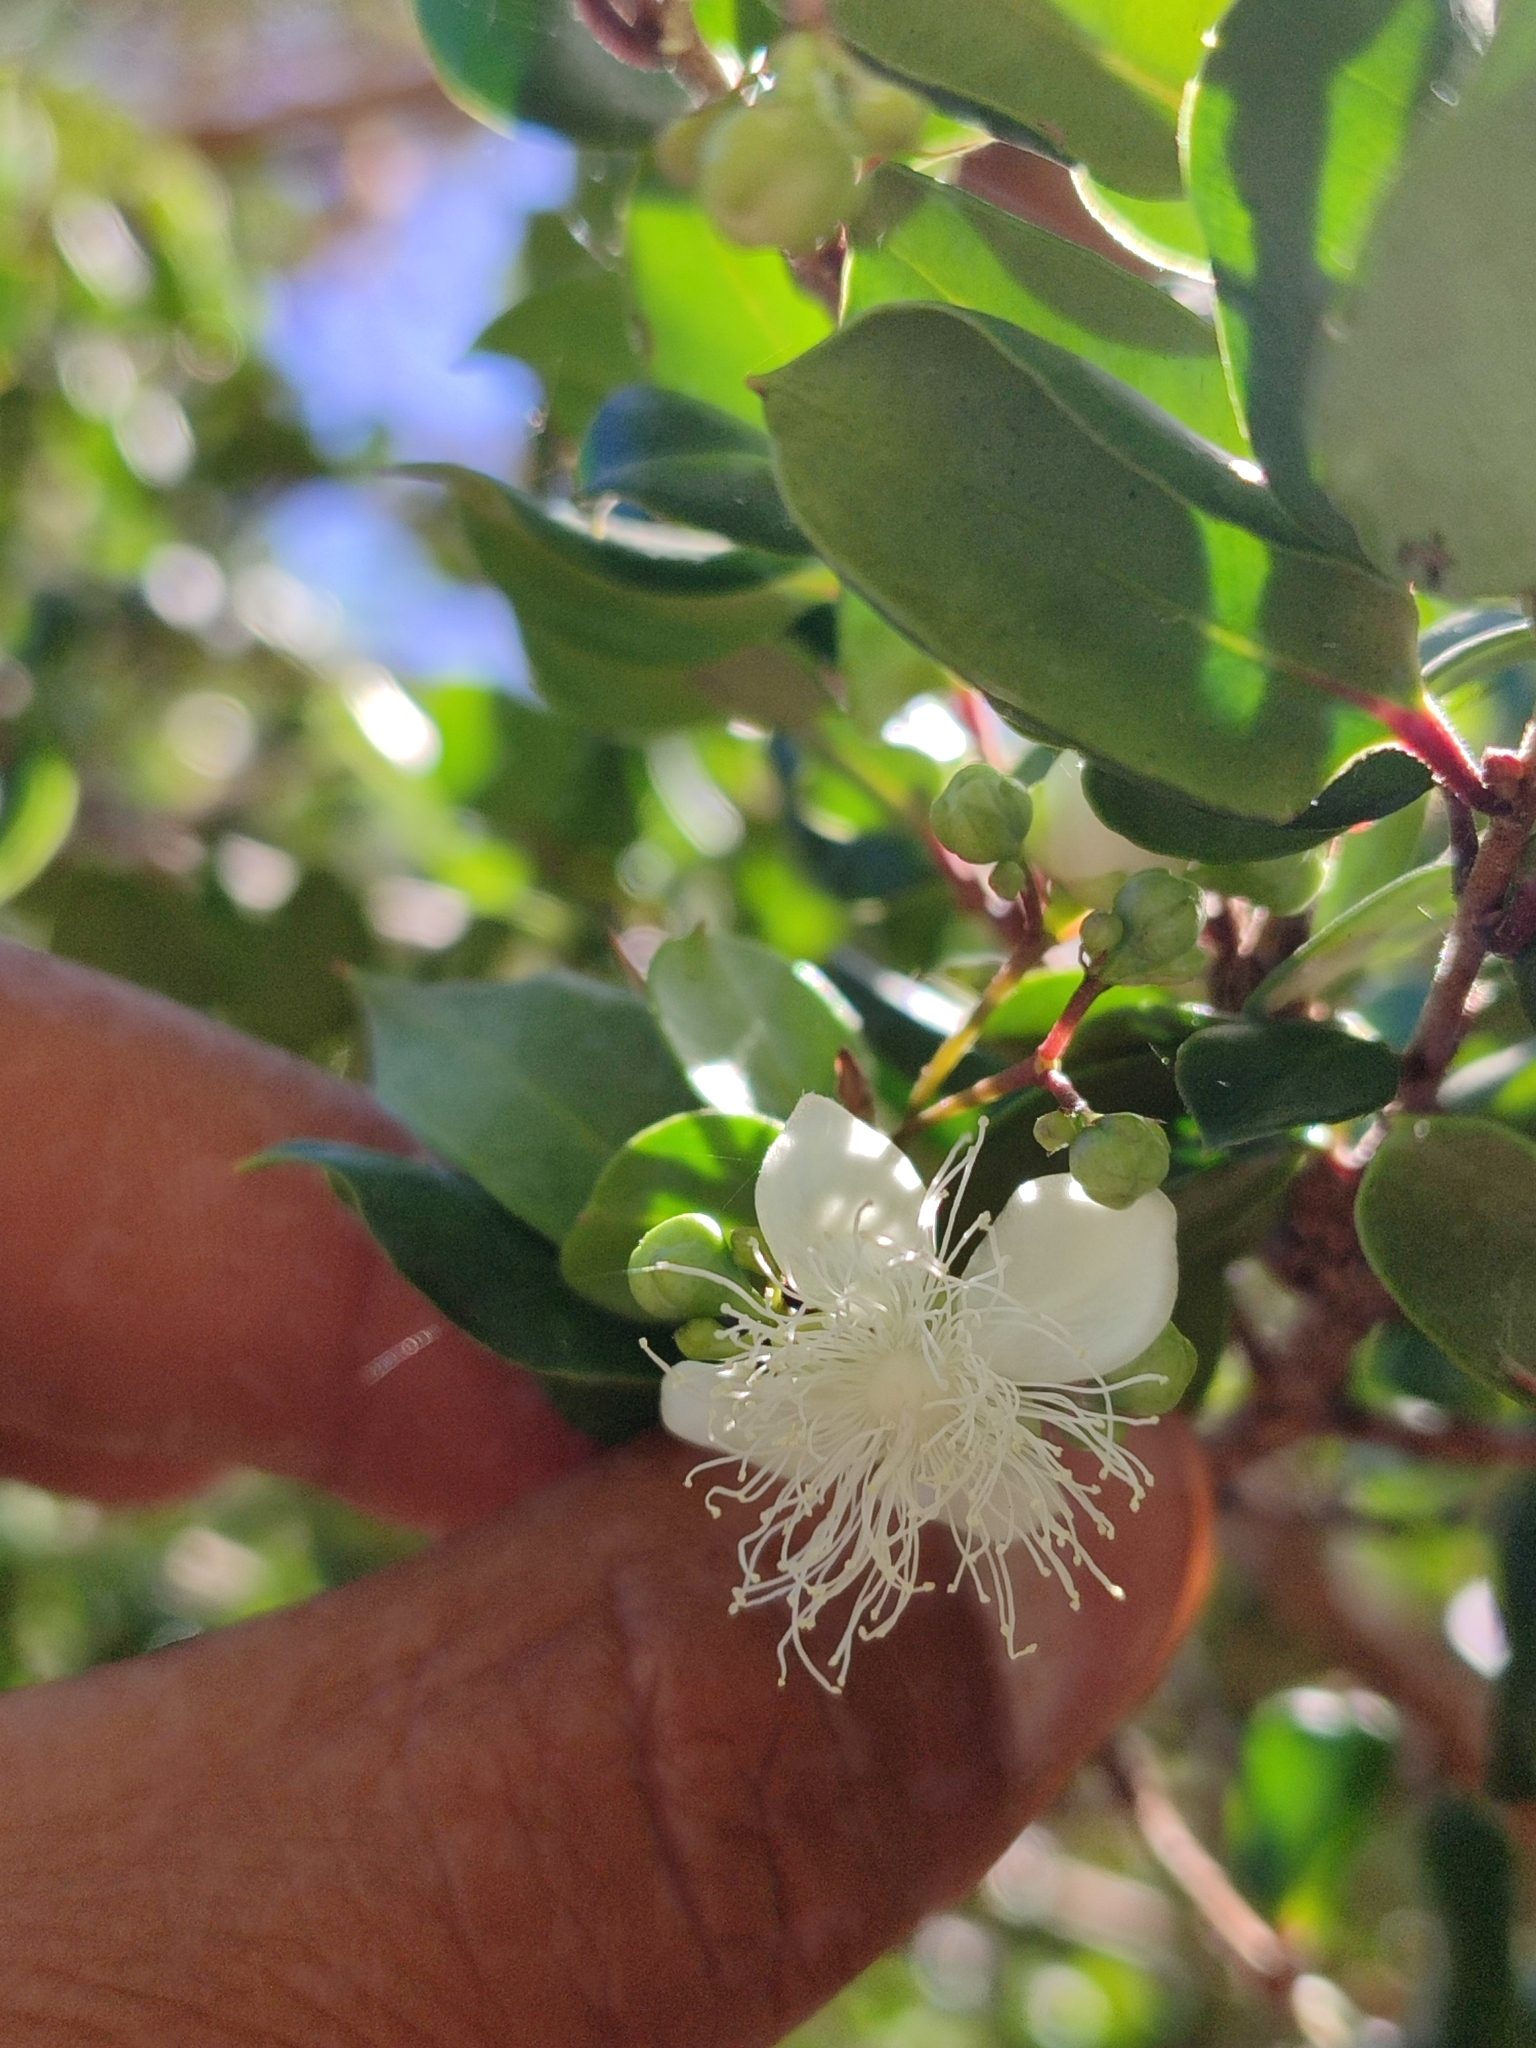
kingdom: Plantae
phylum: Tracheophyta
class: Magnoliopsida
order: Myrtales
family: Myrtaceae
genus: Luma
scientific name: Luma apiculata
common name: Chilean myrtle
